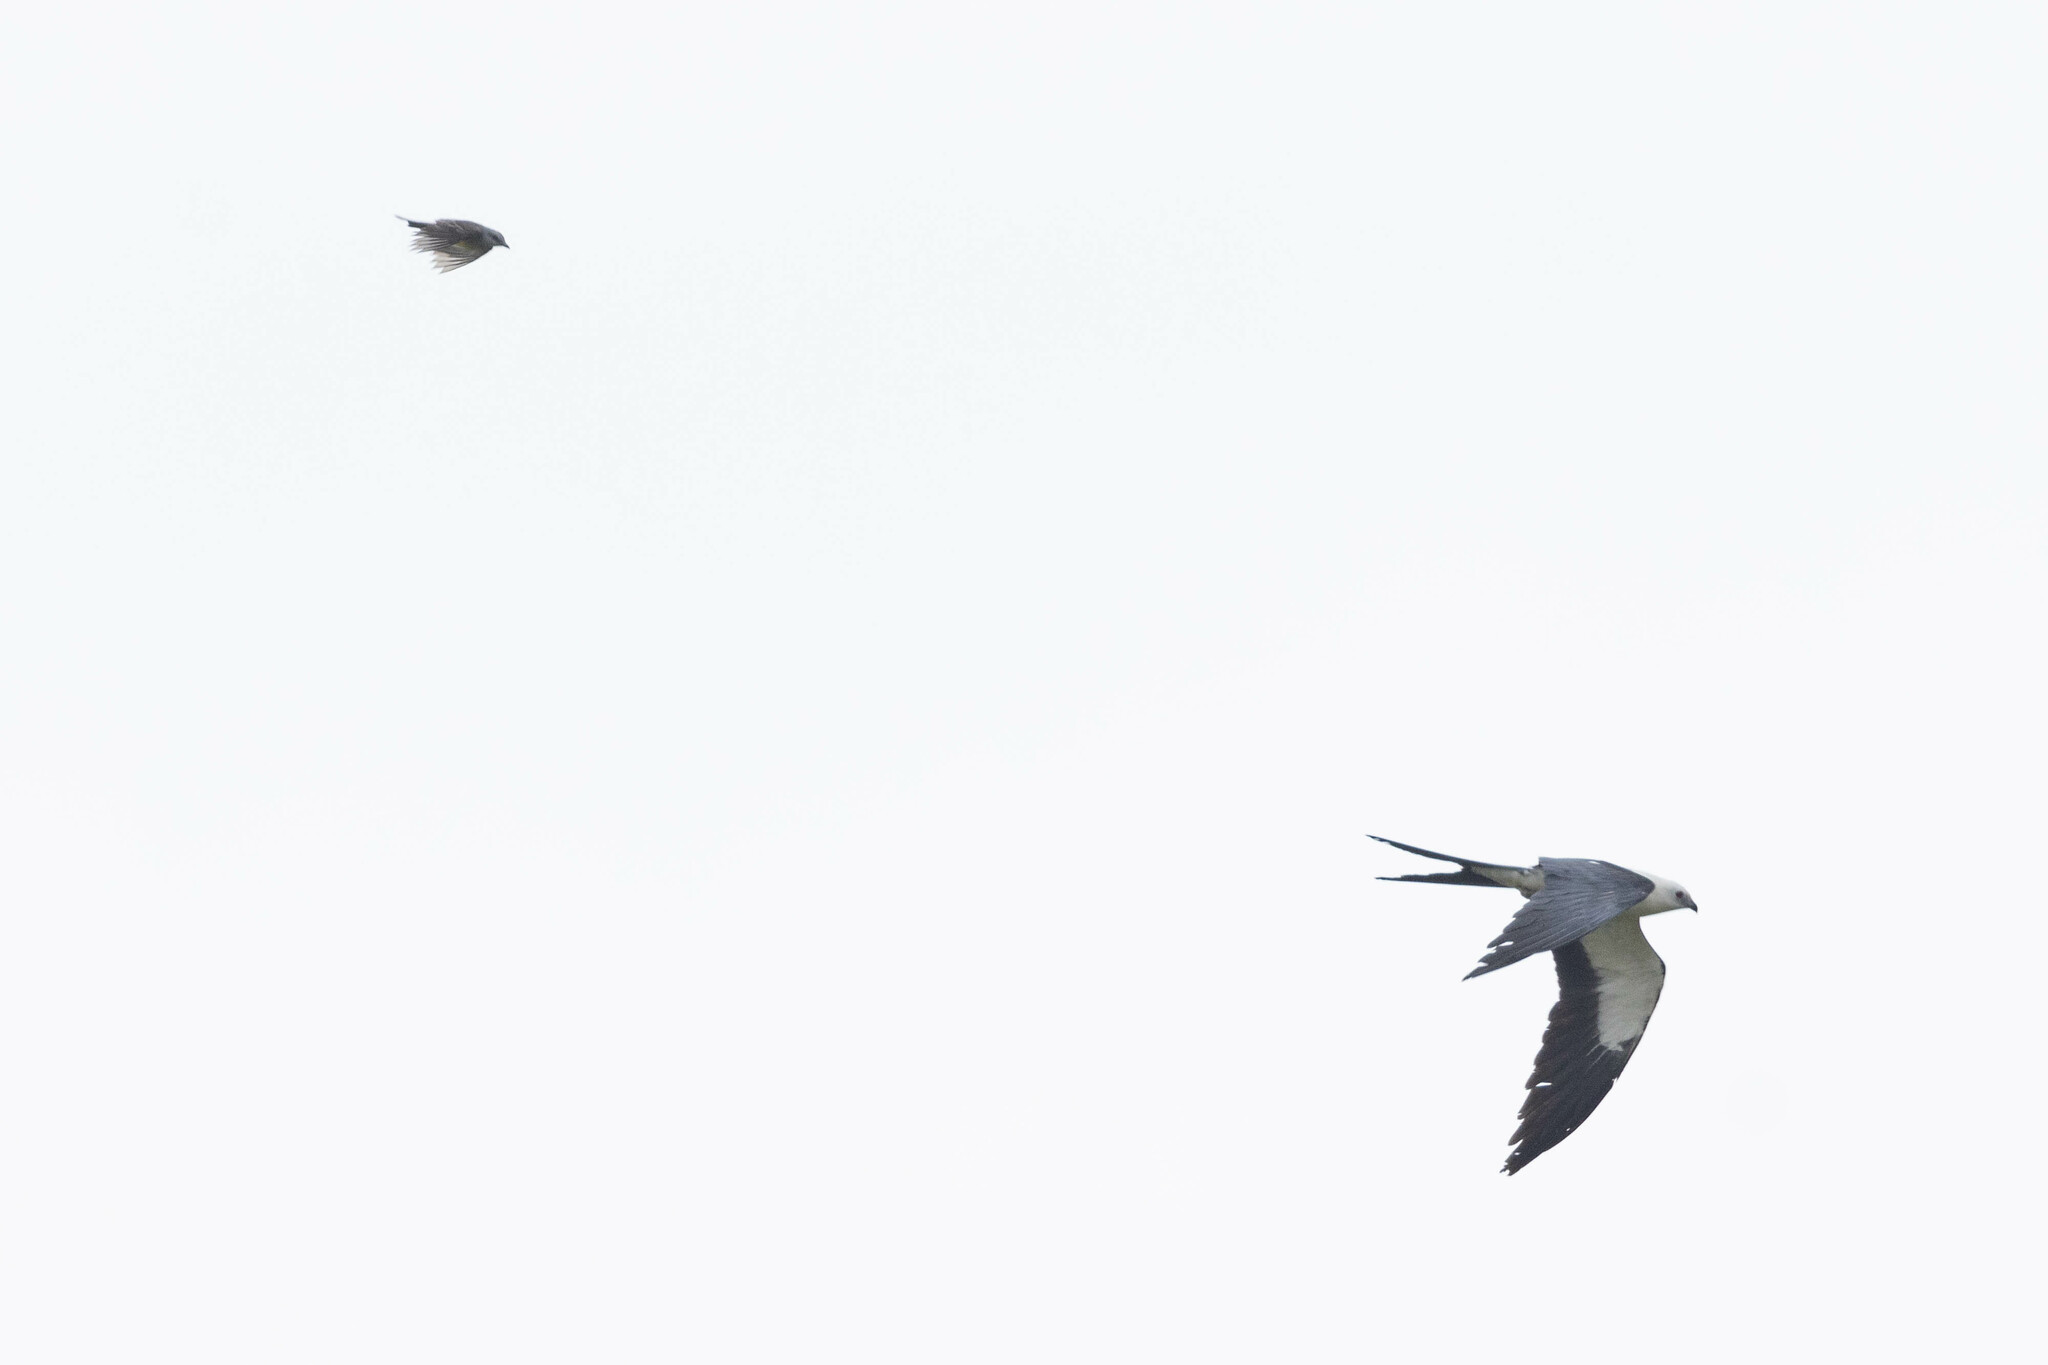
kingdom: Animalia
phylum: Chordata
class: Aves
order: Accipitriformes
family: Accipitridae
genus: Elanoides
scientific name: Elanoides forficatus
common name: Swallow-tailed kite
